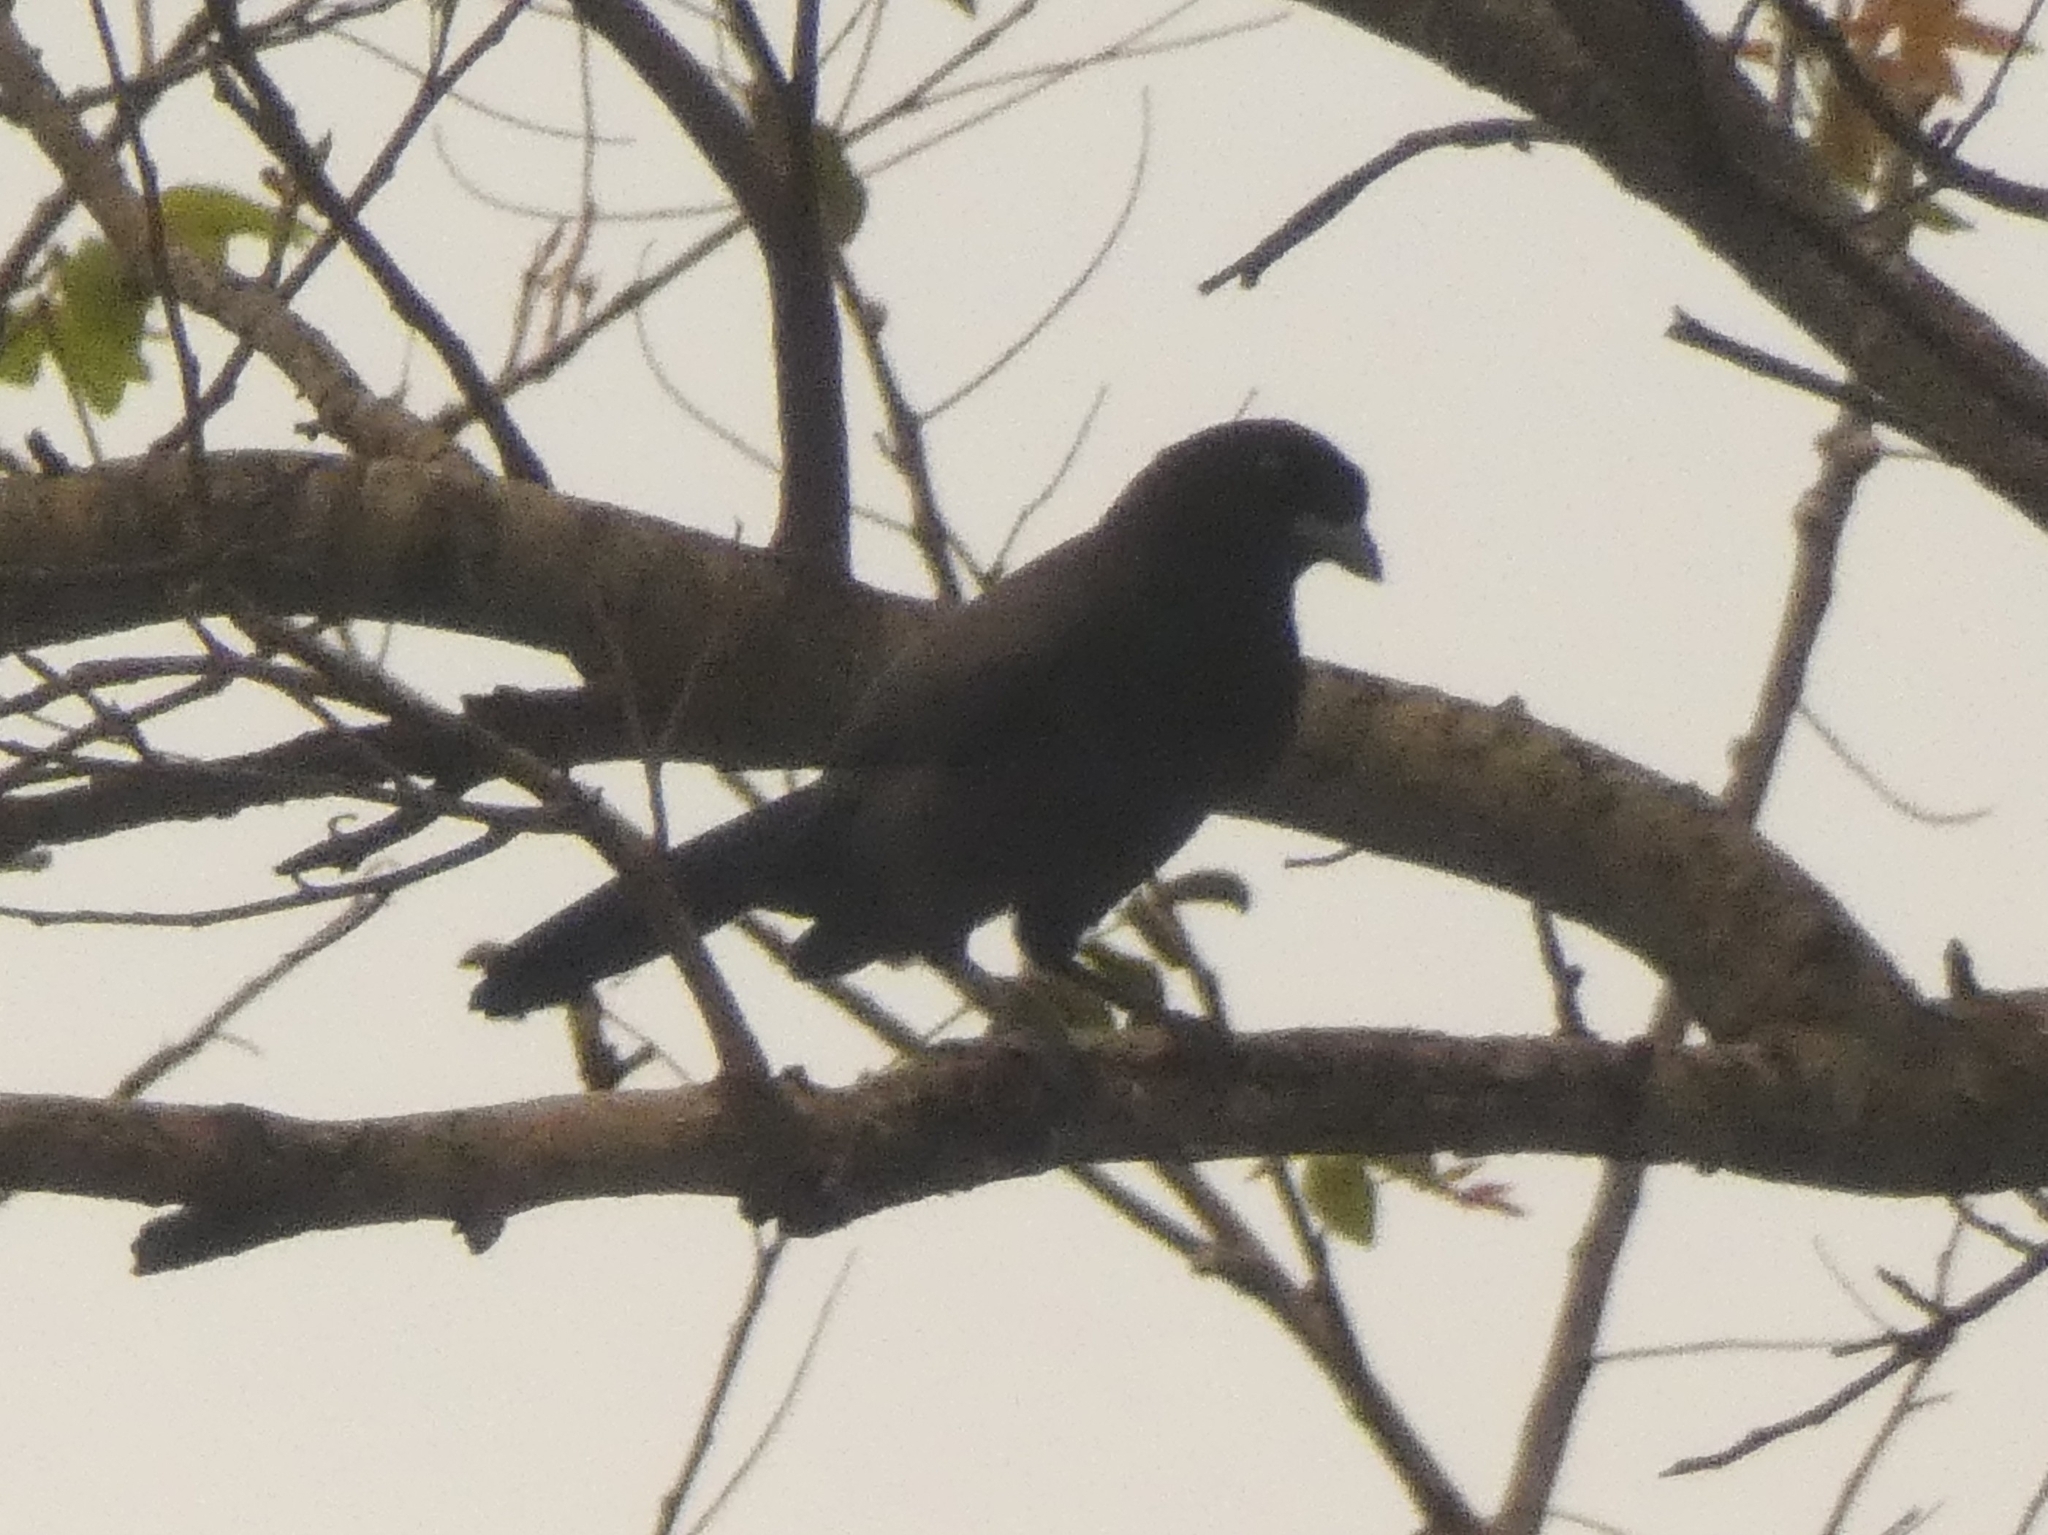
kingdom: Animalia
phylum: Chordata
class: Aves
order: Passeriformes
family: Corvidae
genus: Cyanocorax
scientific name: Cyanocorax cyanomelas
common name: Purplish jay
